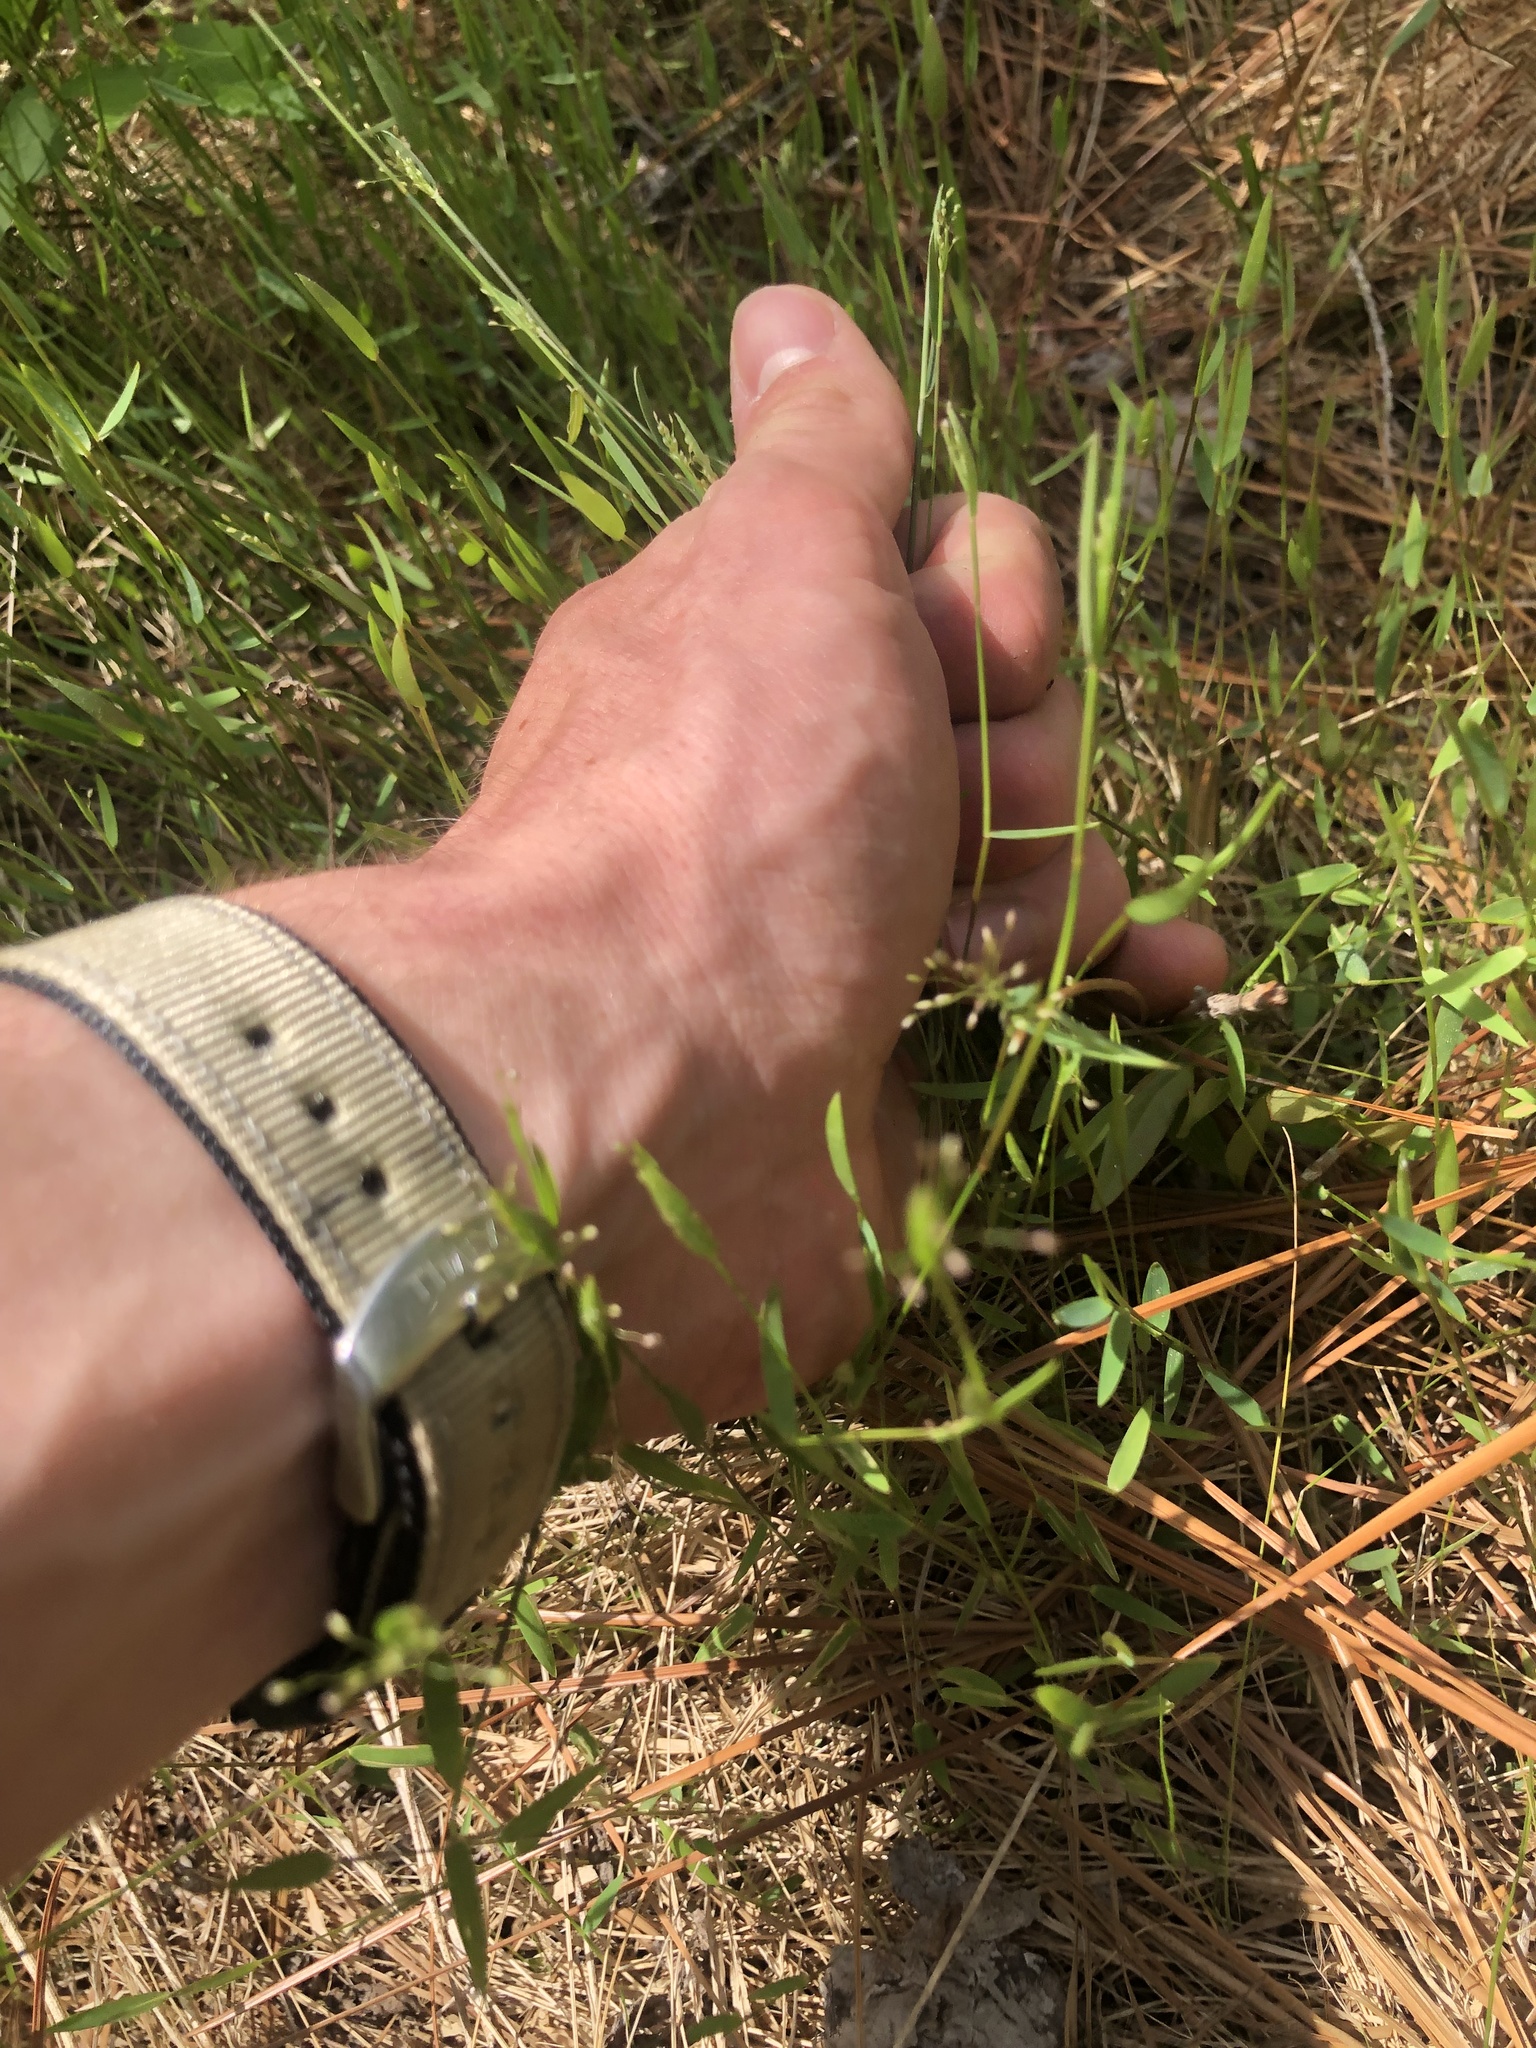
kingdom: Plantae
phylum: Tracheophyta
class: Liliopsida
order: Poales
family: Poaceae
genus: Dichanthelium
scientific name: Dichanthelium ensifolium
